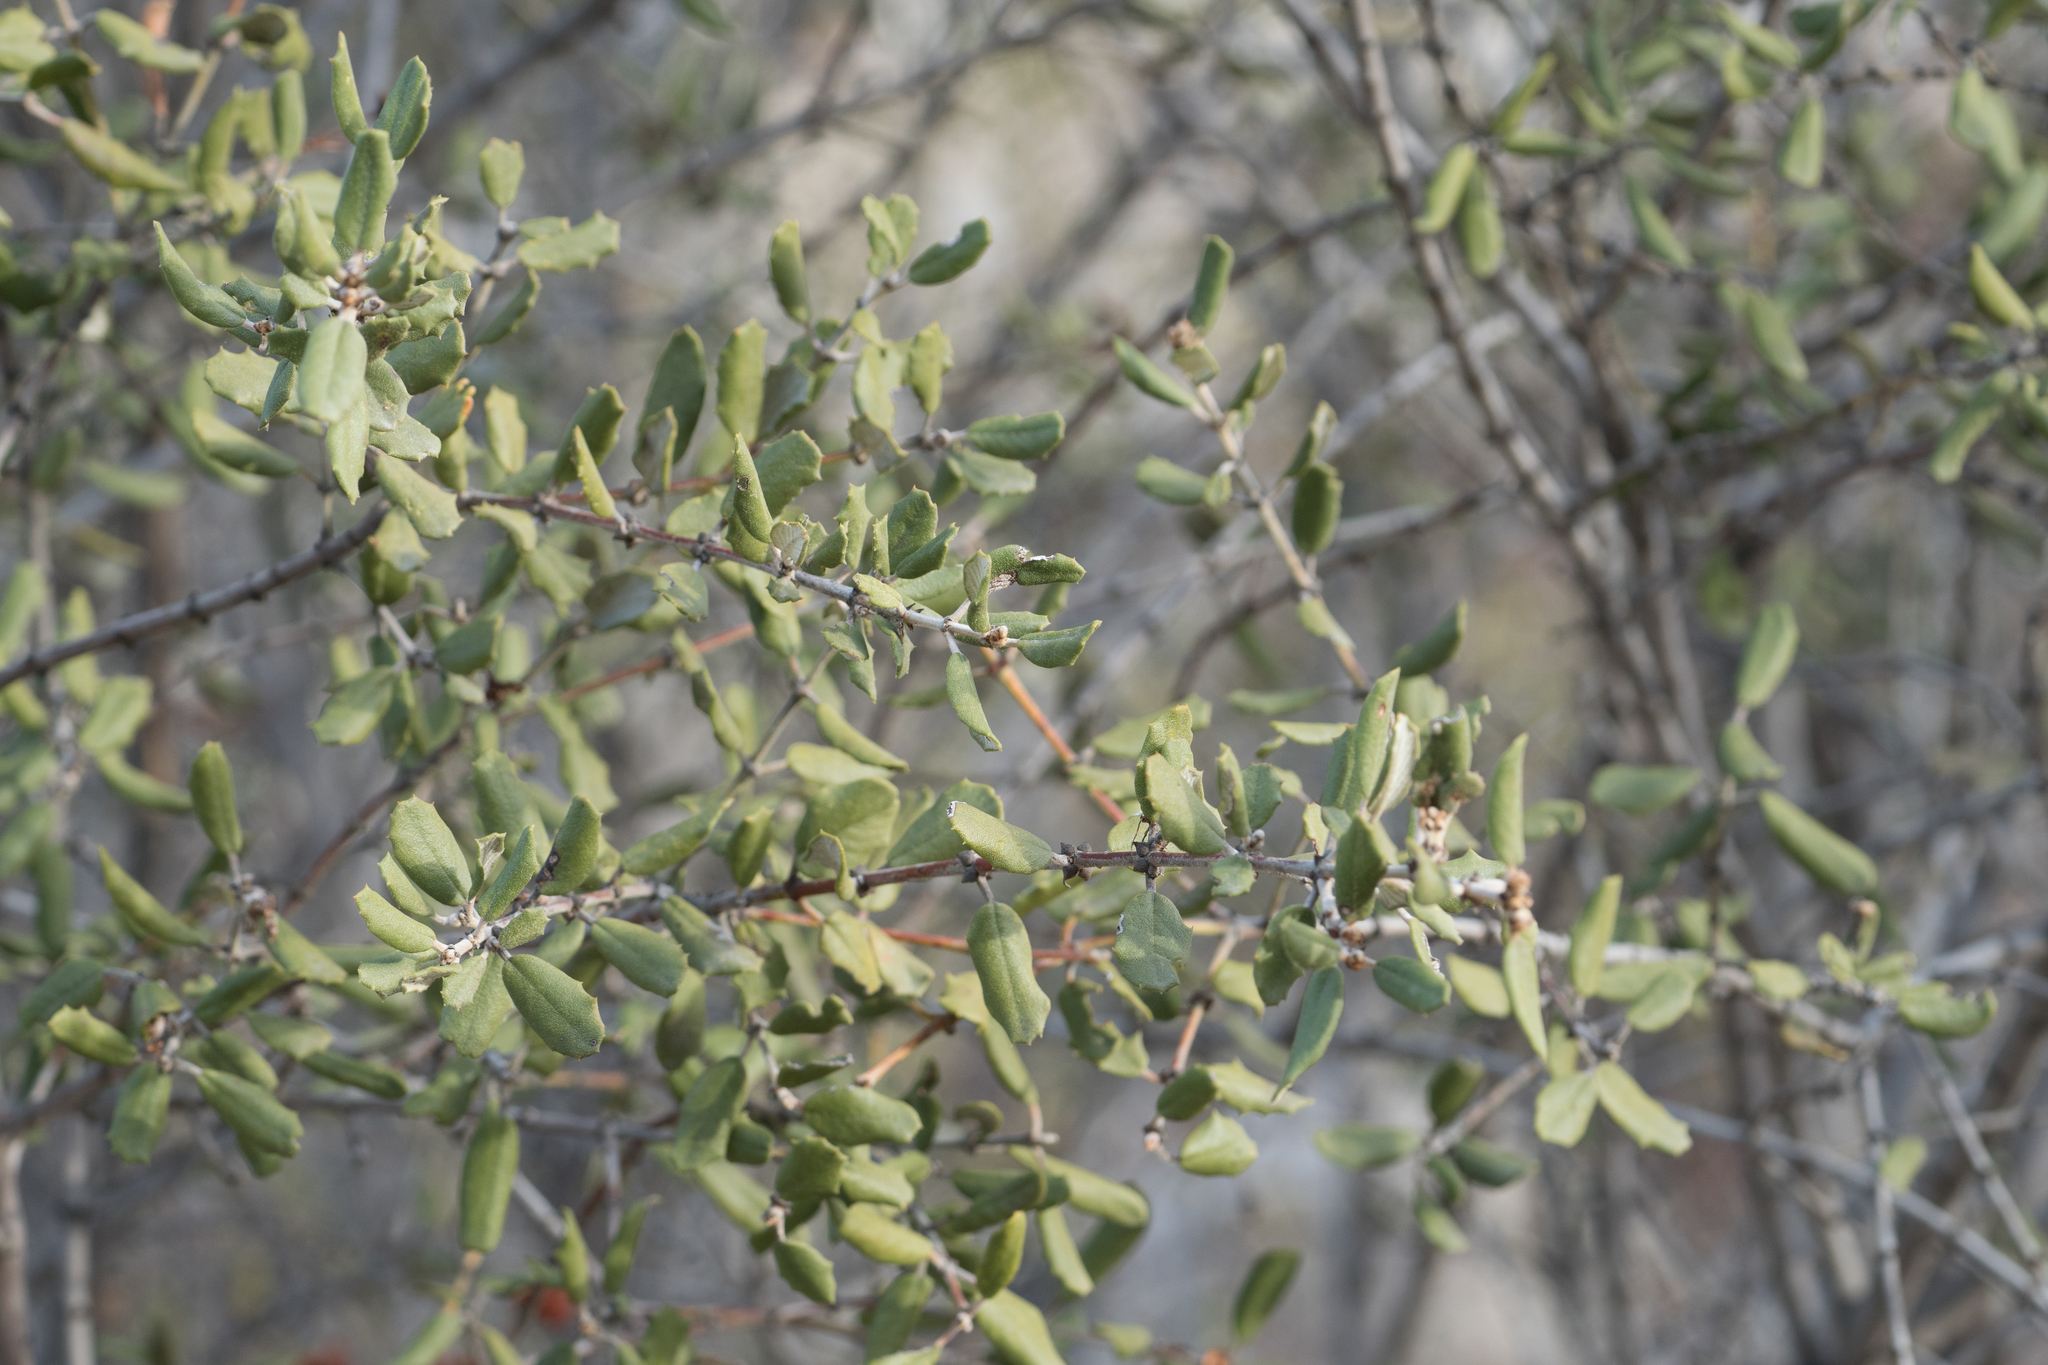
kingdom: Plantae
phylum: Tracheophyta
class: Magnoliopsida
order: Rosales
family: Rhamnaceae
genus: Ceanothus
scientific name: Ceanothus crassifolius
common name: Hoaryleaf ceanothus
